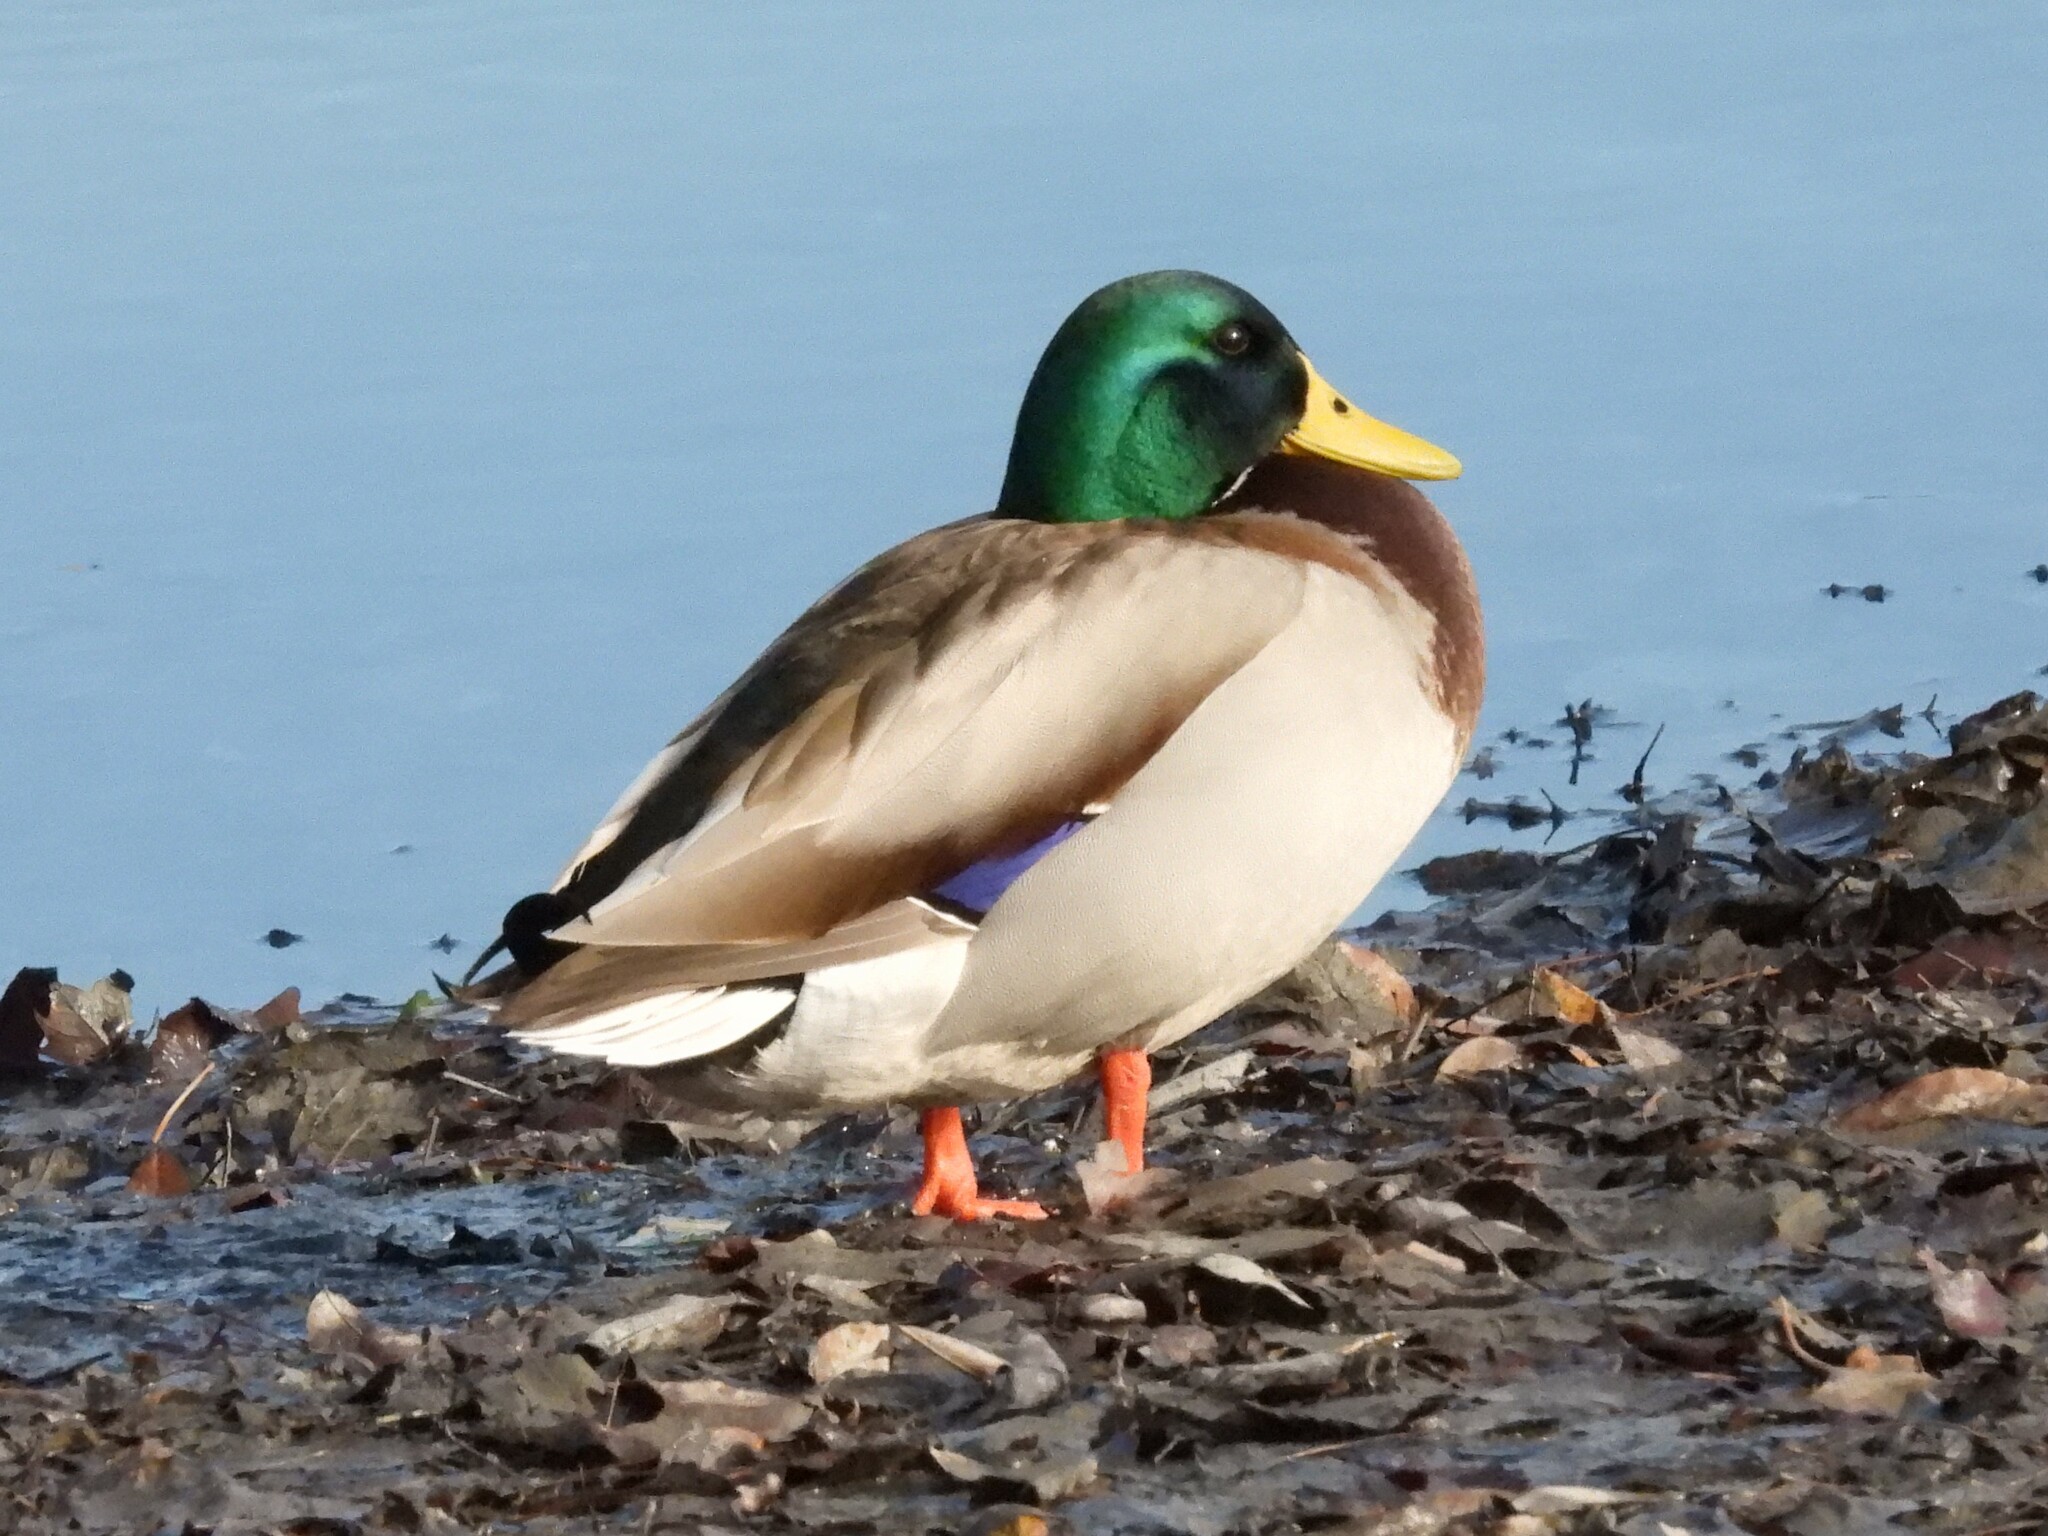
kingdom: Animalia
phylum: Chordata
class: Aves
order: Anseriformes
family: Anatidae
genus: Anas
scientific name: Anas platyrhynchos
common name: Mallard
